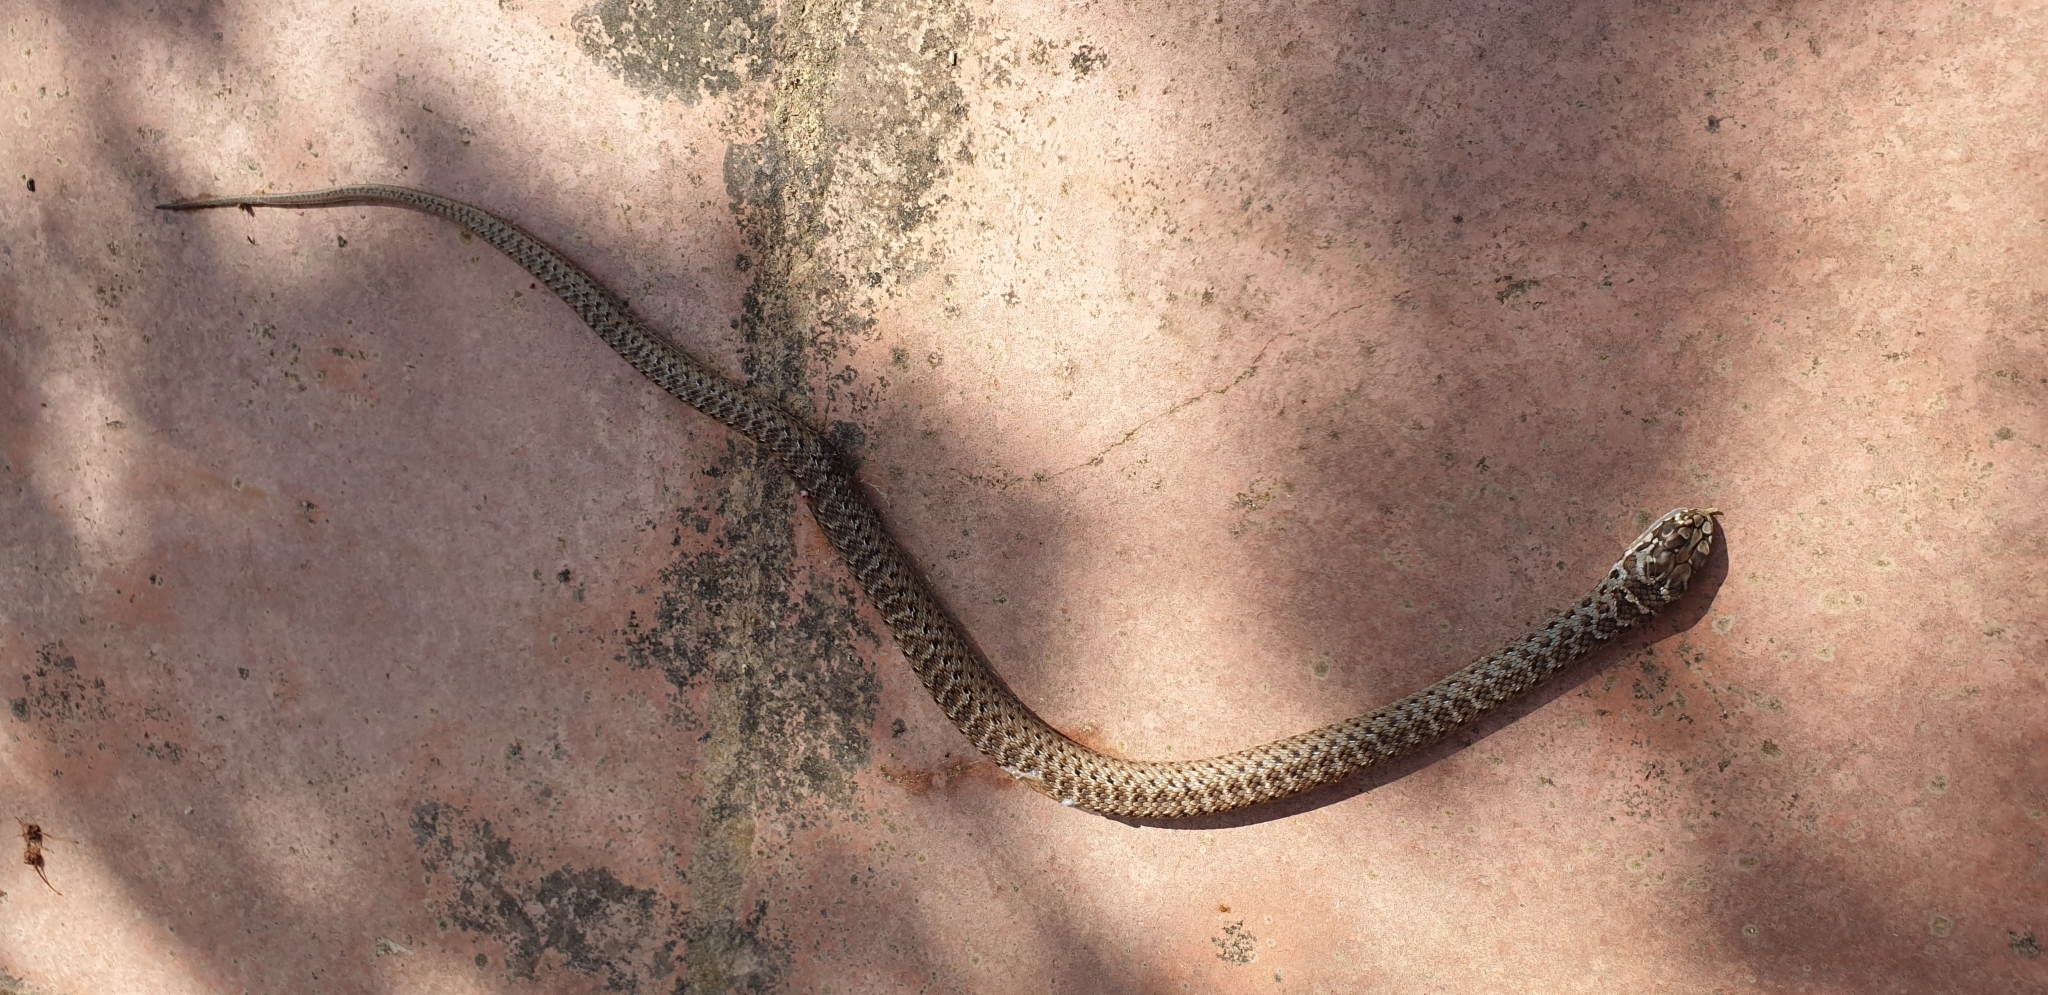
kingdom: Animalia
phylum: Chordata
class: Squamata
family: Psammophiidae
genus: Malpolon
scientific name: Malpolon monspessulanus
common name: Montpellier snake
